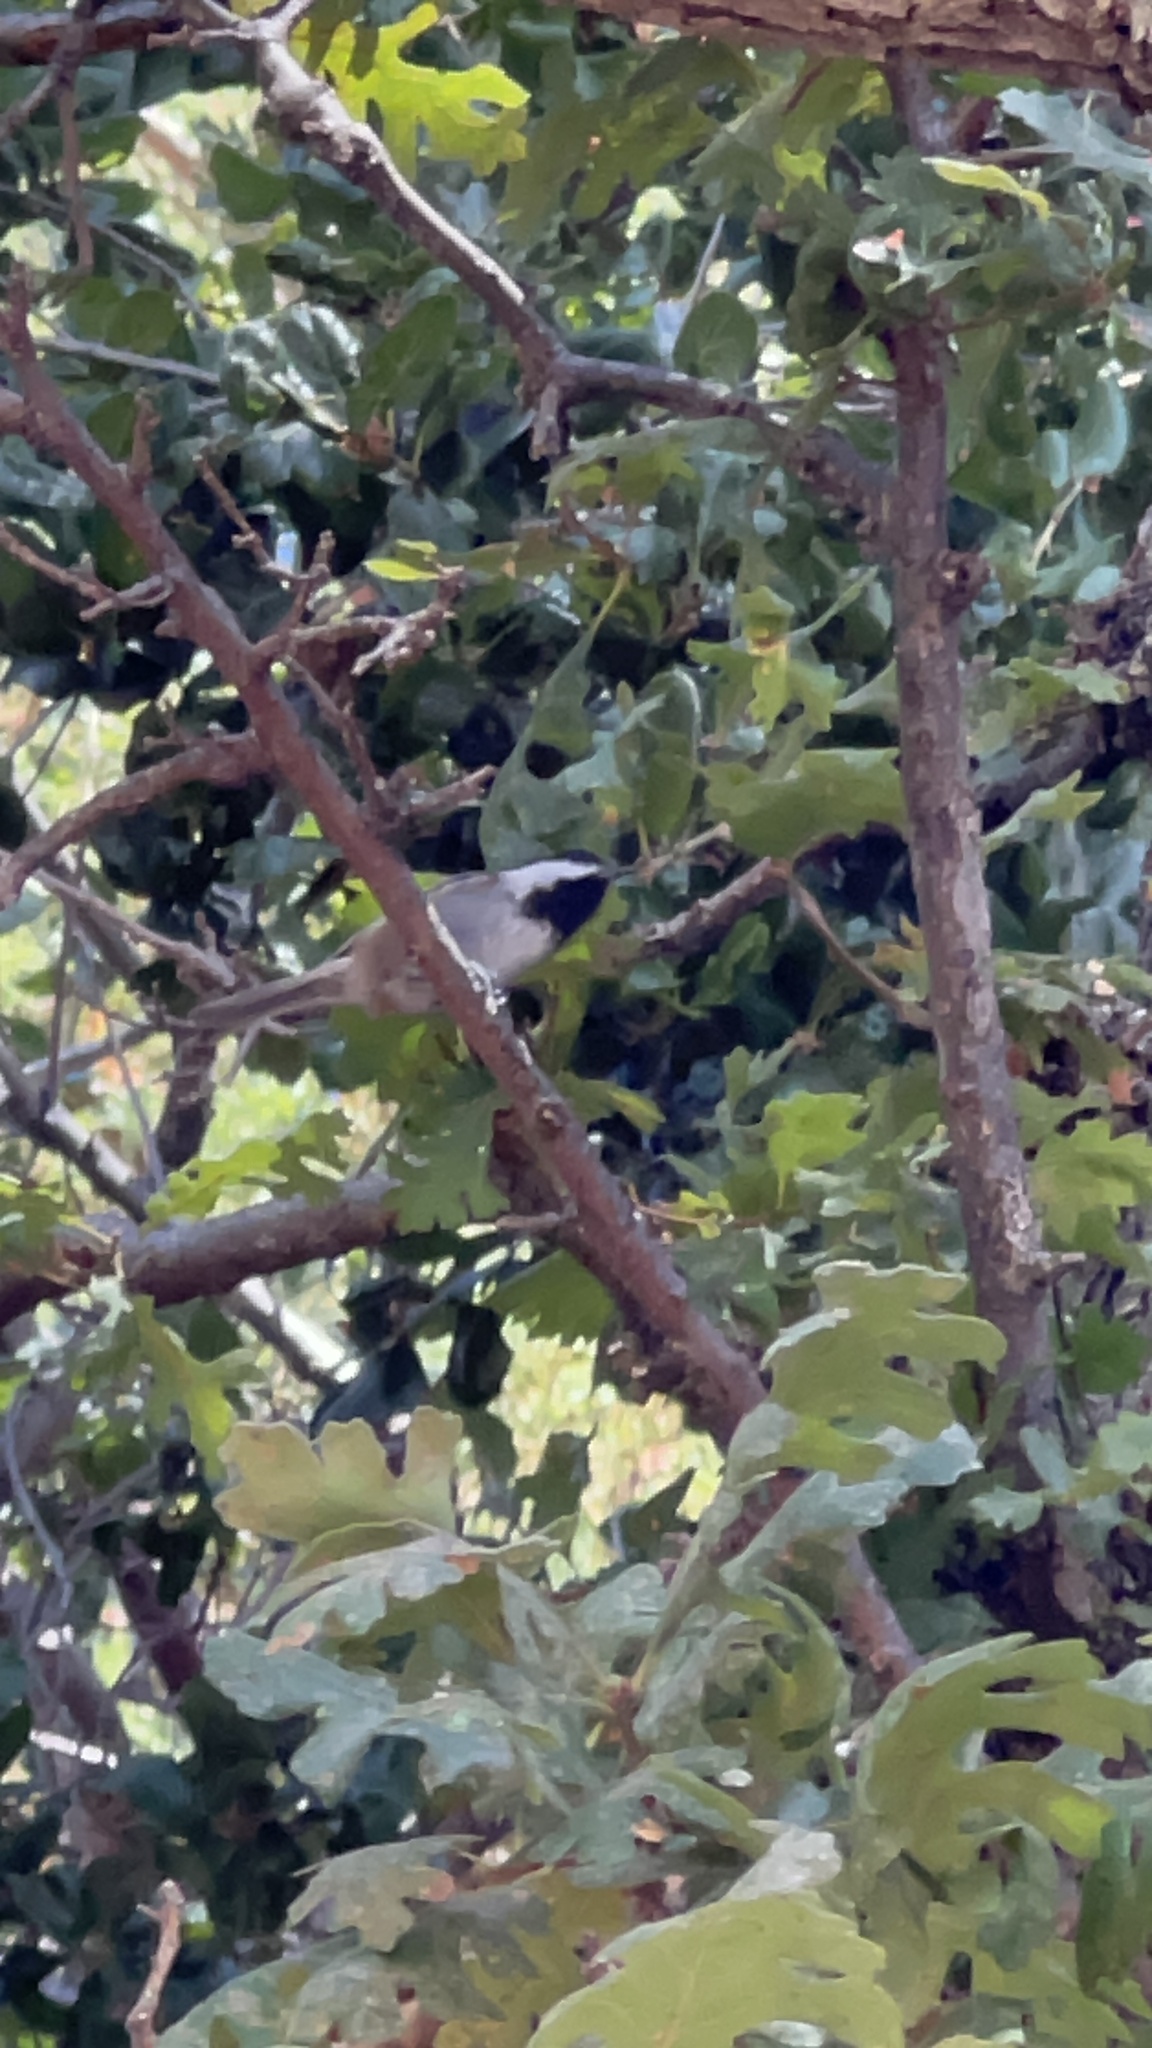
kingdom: Animalia
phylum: Chordata
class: Aves
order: Passeriformes
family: Paridae
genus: Poecile
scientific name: Poecile rufescens
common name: Chestnut-backed chickadee
